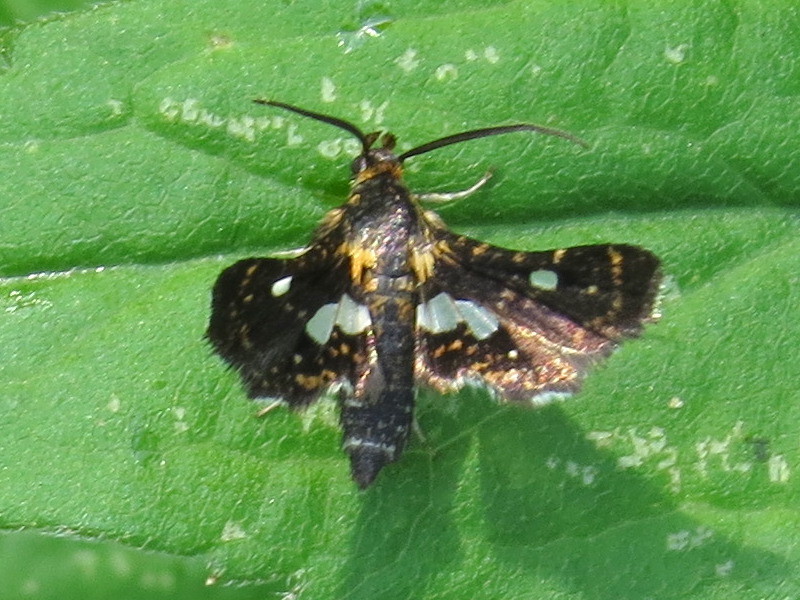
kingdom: Animalia
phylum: Arthropoda
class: Insecta
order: Lepidoptera
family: Thyrididae
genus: Thyris
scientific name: Thyris maculata
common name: Spotted thyris moth
